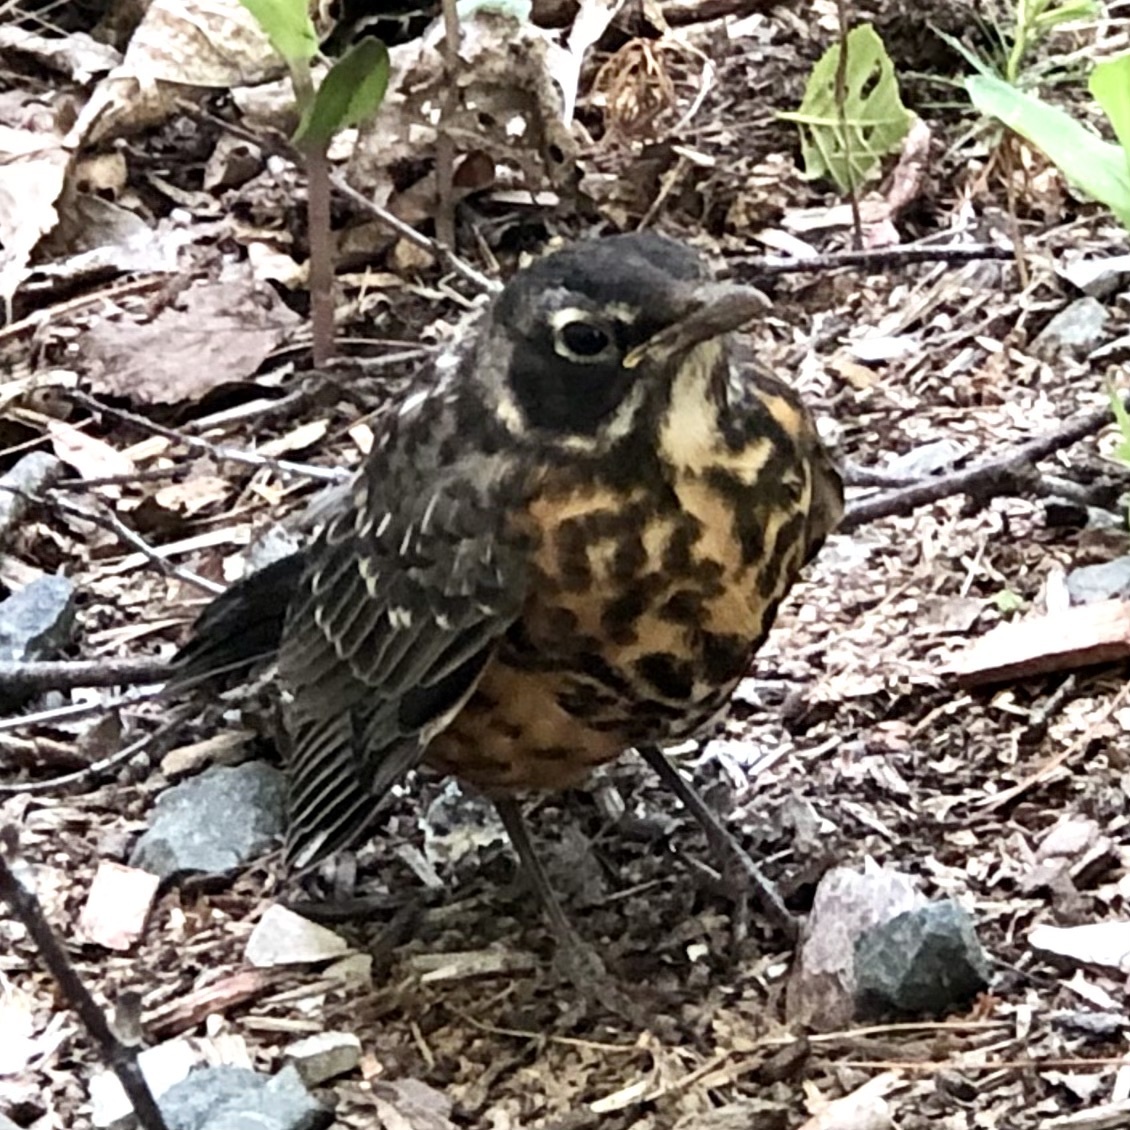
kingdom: Animalia
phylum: Chordata
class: Aves
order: Passeriformes
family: Turdidae
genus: Turdus
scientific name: Turdus migratorius
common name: American robin
